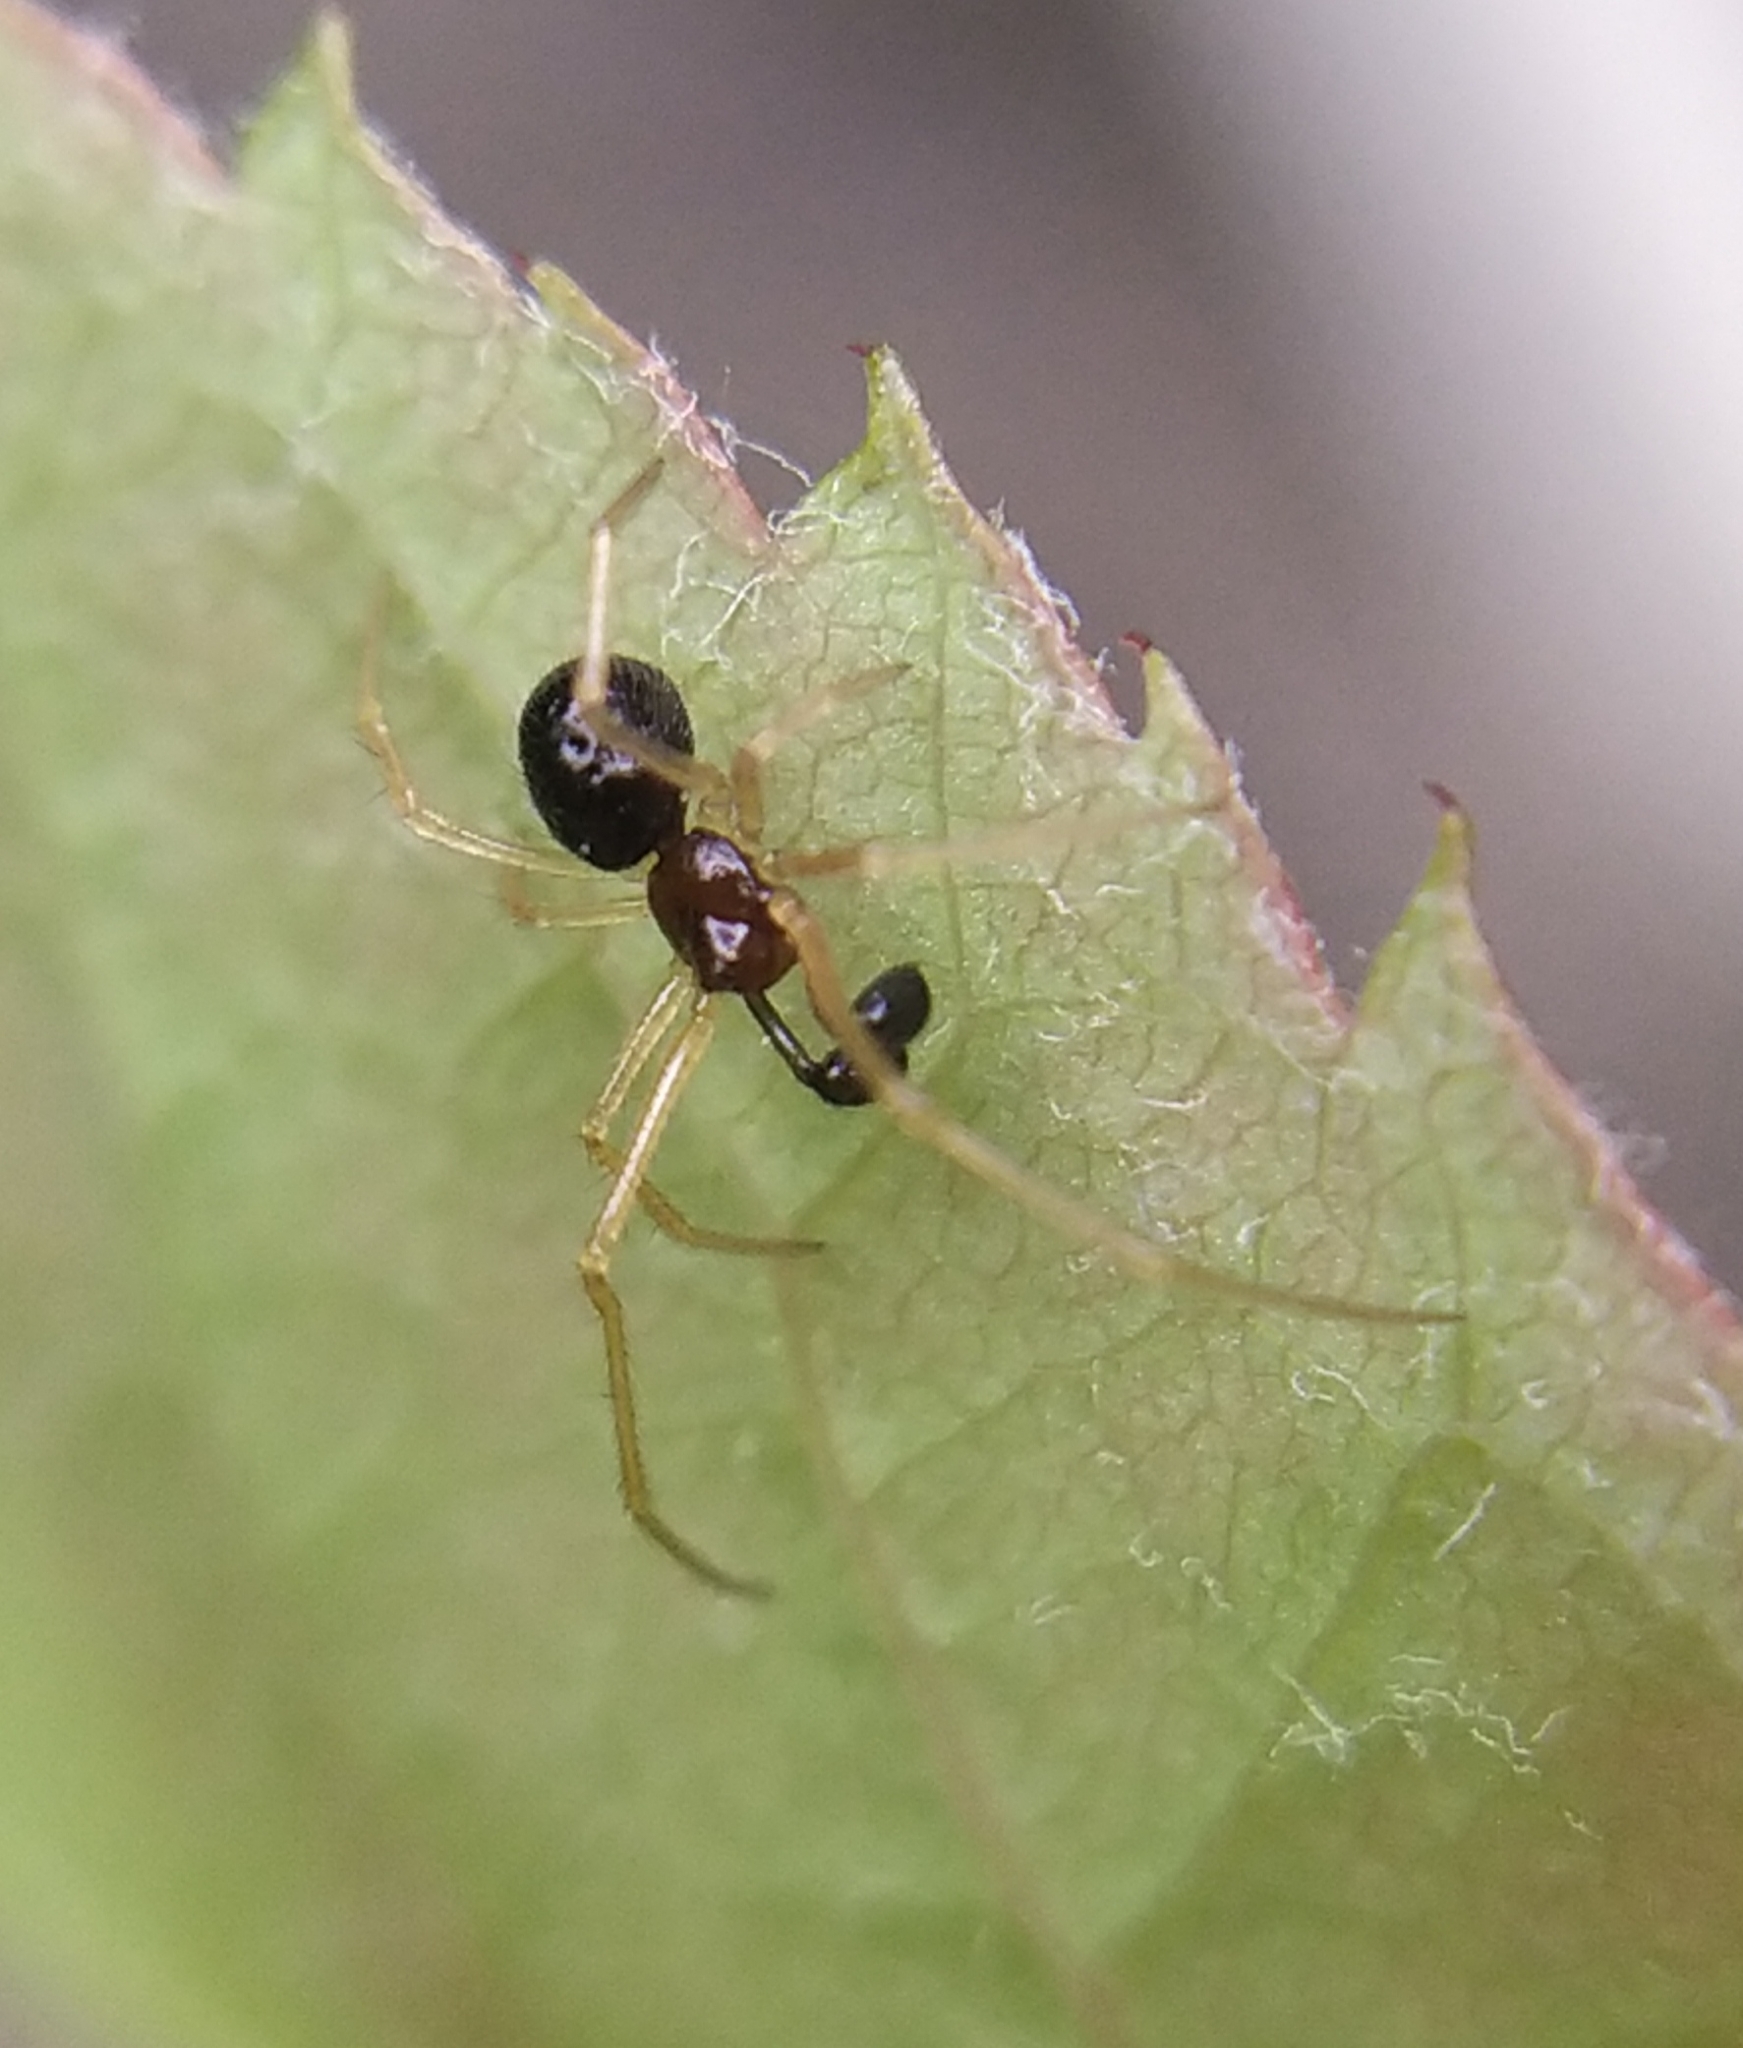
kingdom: Animalia
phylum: Arthropoda
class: Arachnida
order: Araneae
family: Theridiidae
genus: Neottiura
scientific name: Neottiura bimaculata
